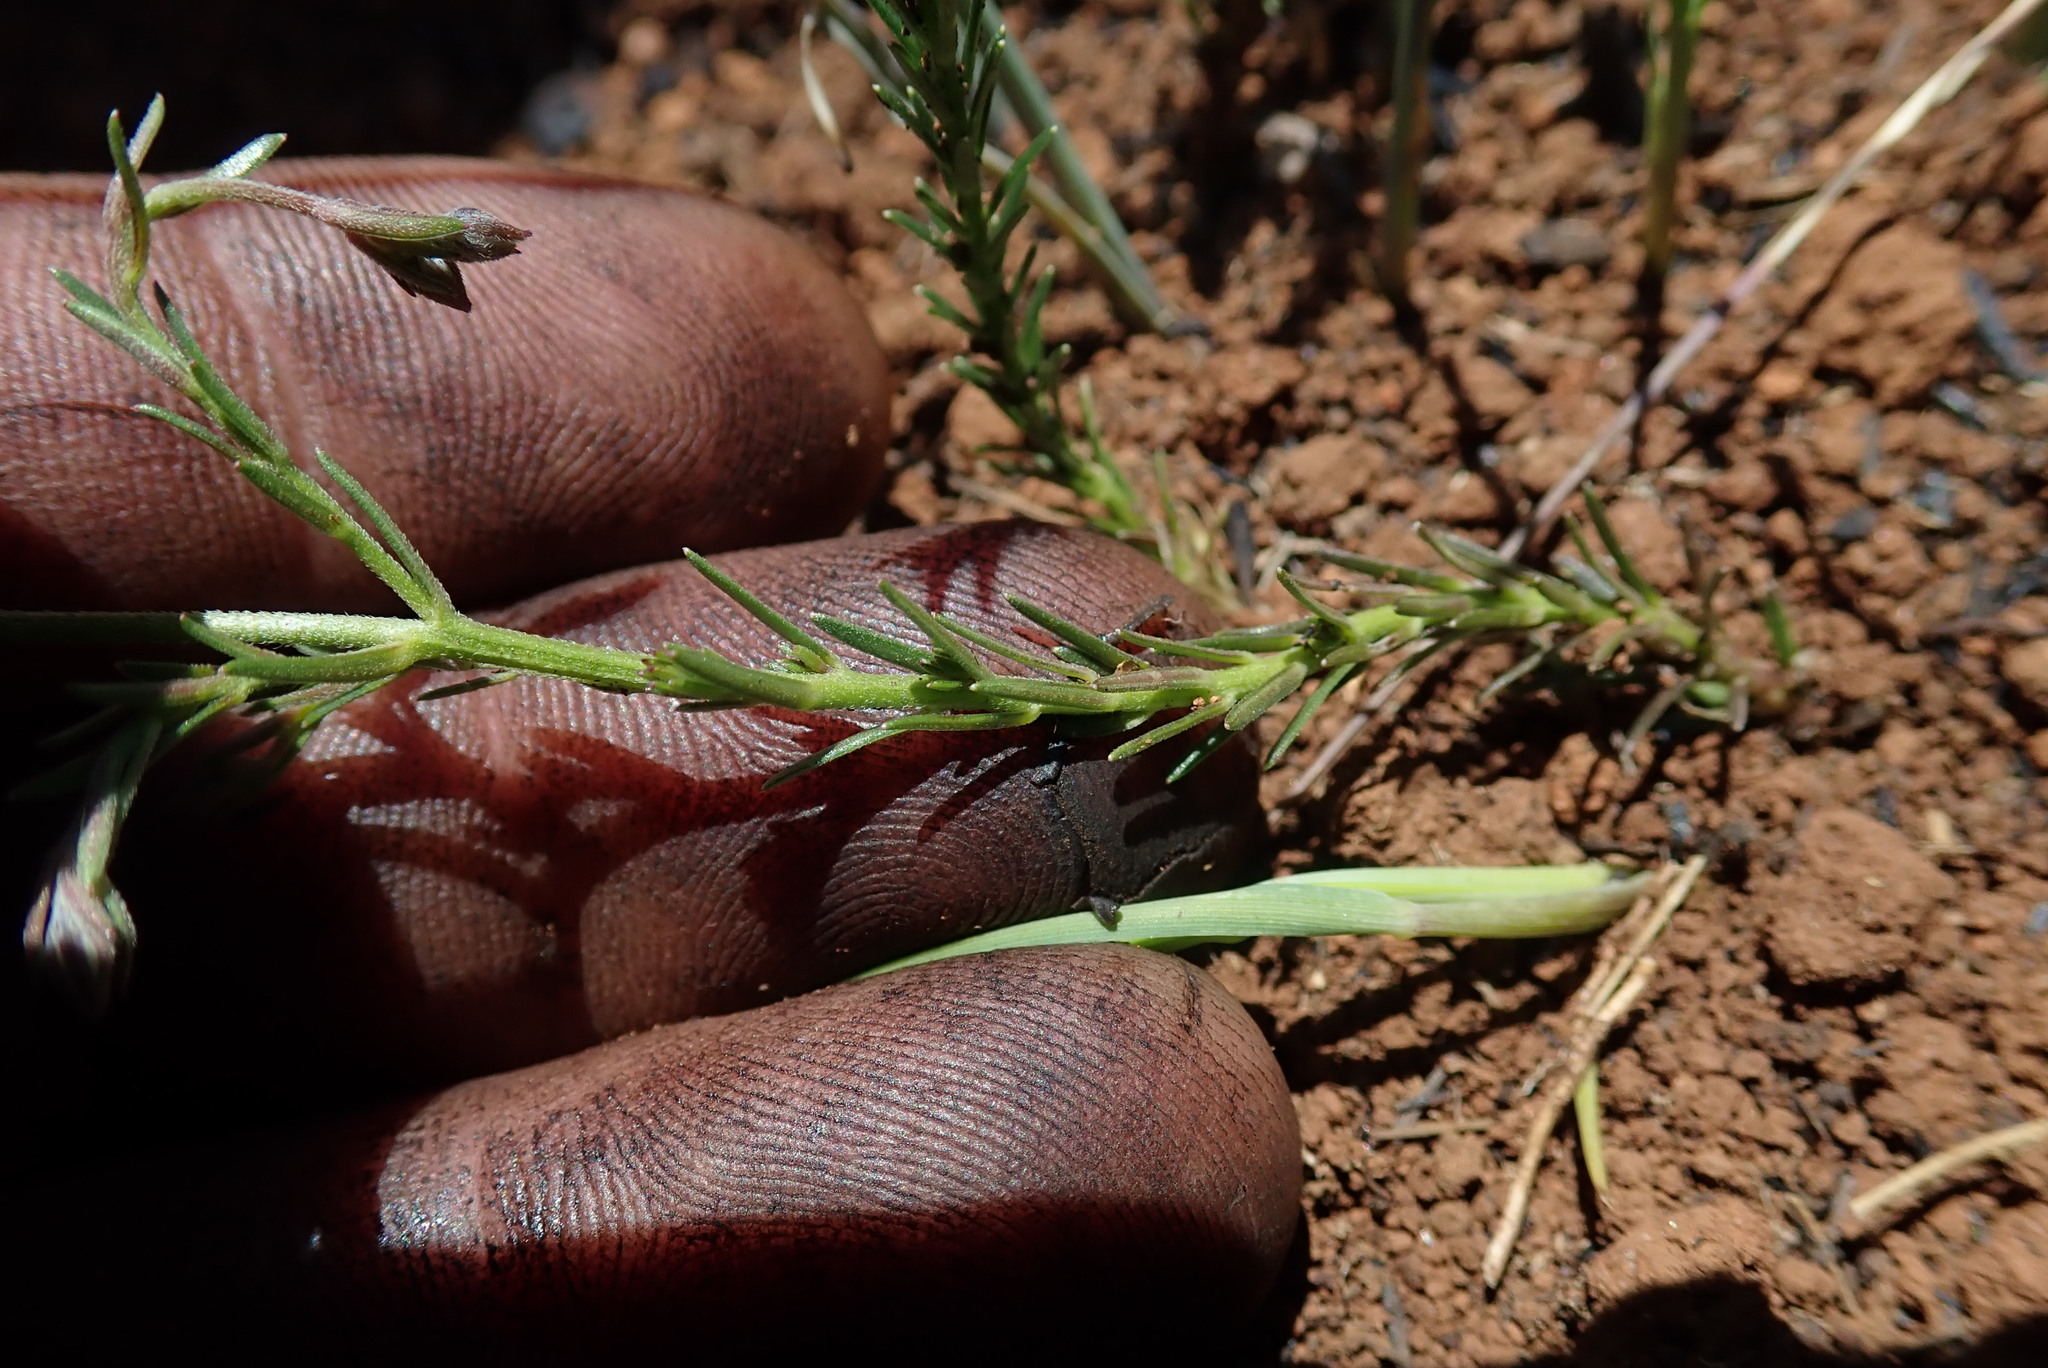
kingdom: Plantae
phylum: Tracheophyta
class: Magnoliopsida
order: Asterales
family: Campanulaceae
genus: Monopsis
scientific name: Monopsis decipiens
